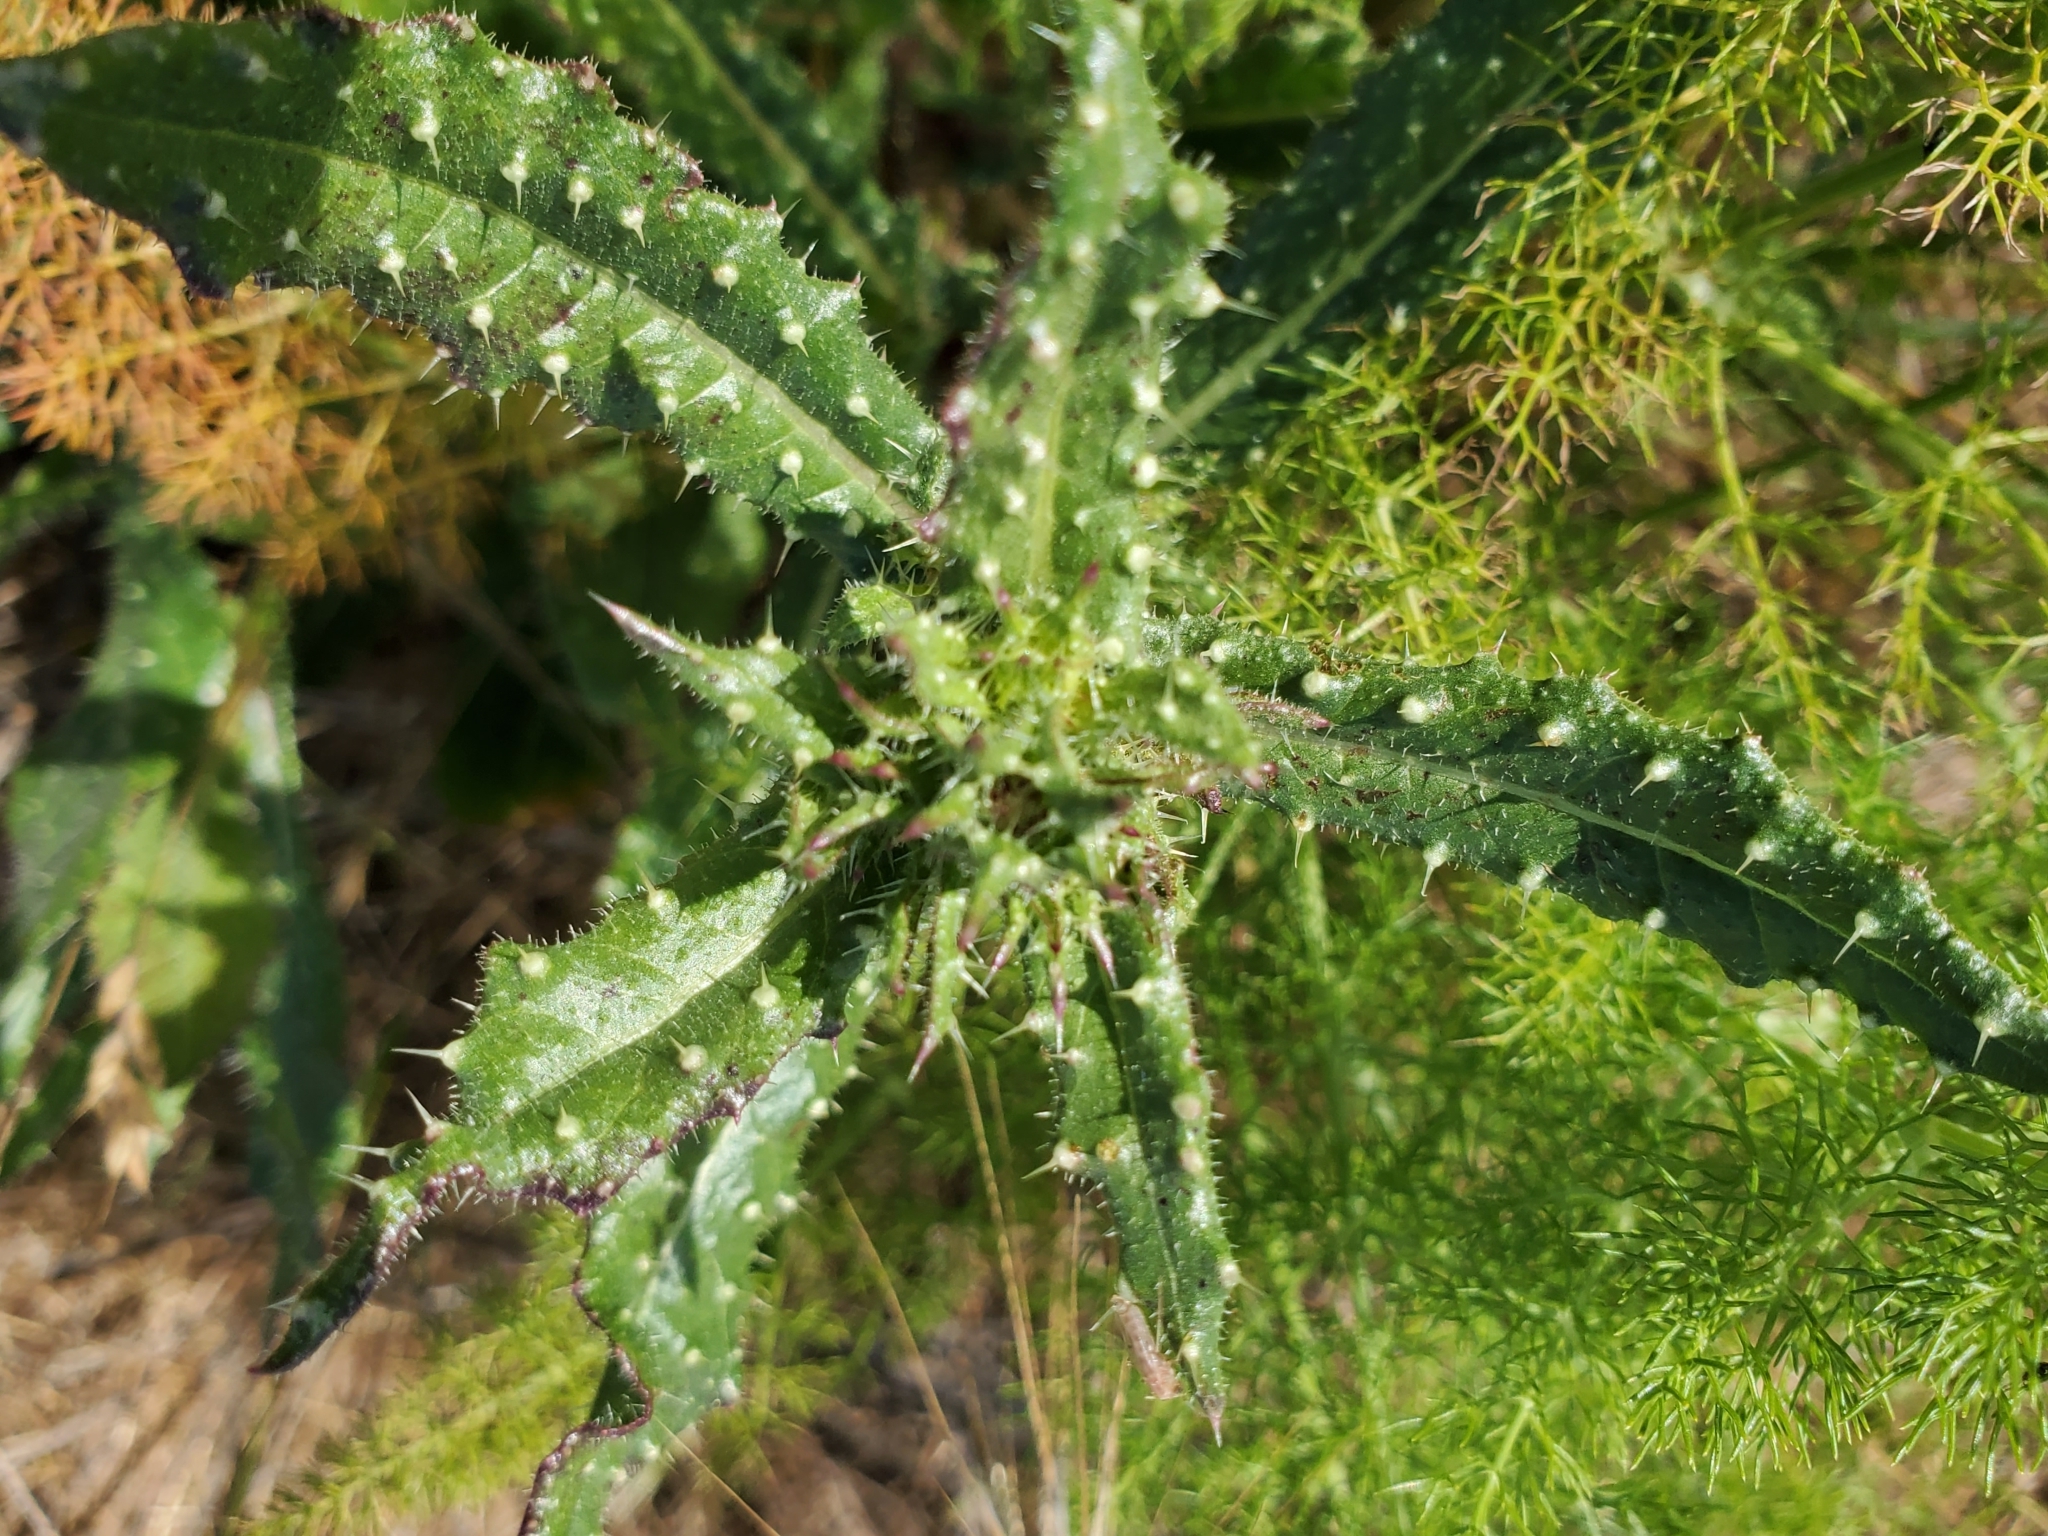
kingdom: Plantae
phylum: Tracheophyta
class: Magnoliopsida
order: Asterales
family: Asteraceae
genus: Helminthotheca
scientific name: Helminthotheca echioides
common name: Ox-tongue
